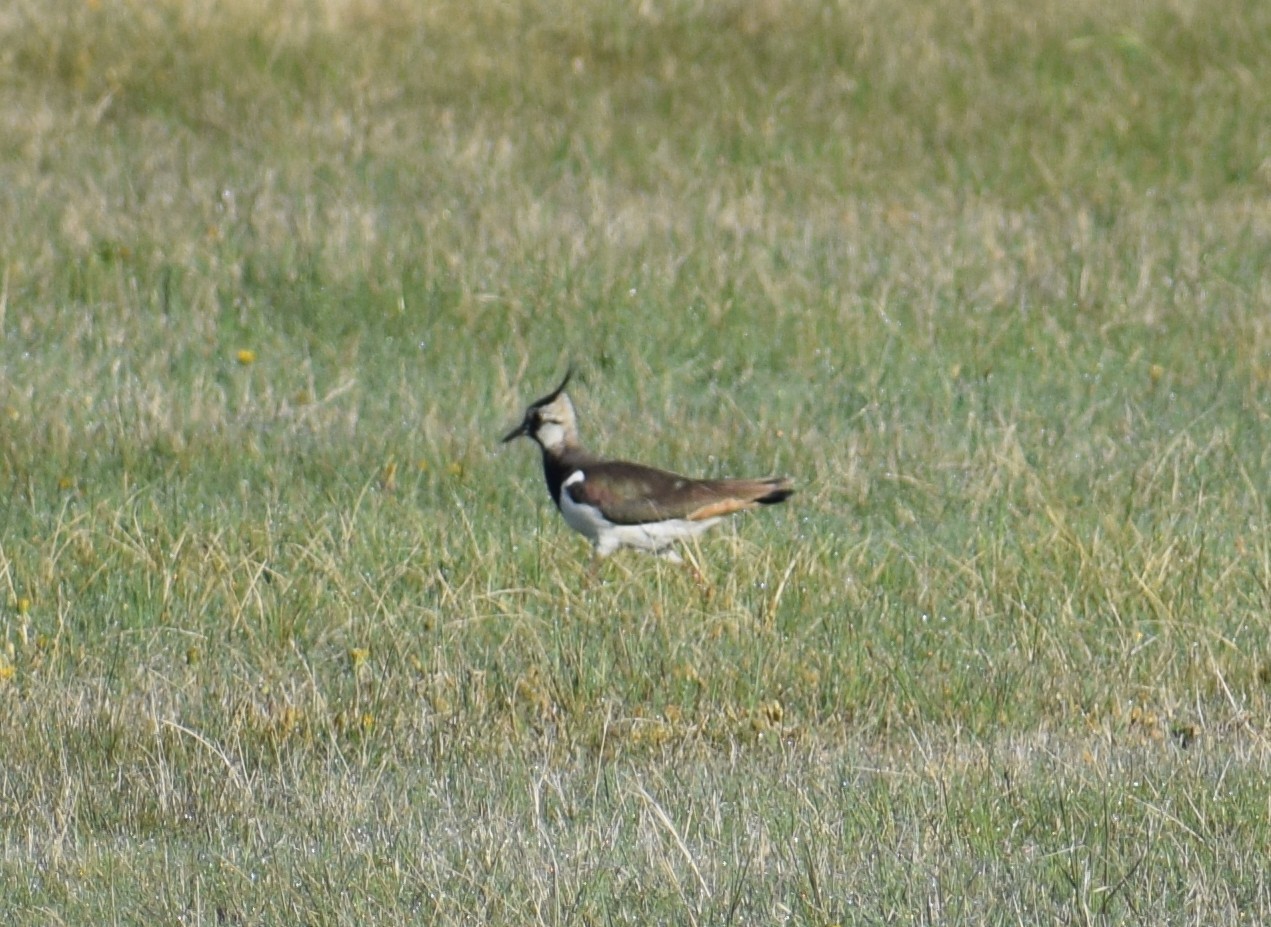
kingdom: Animalia
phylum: Chordata
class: Aves
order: Charadriiformes
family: Charadriidae
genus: Vanellus
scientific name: Vanellus vanellus
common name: Northern lapwing
